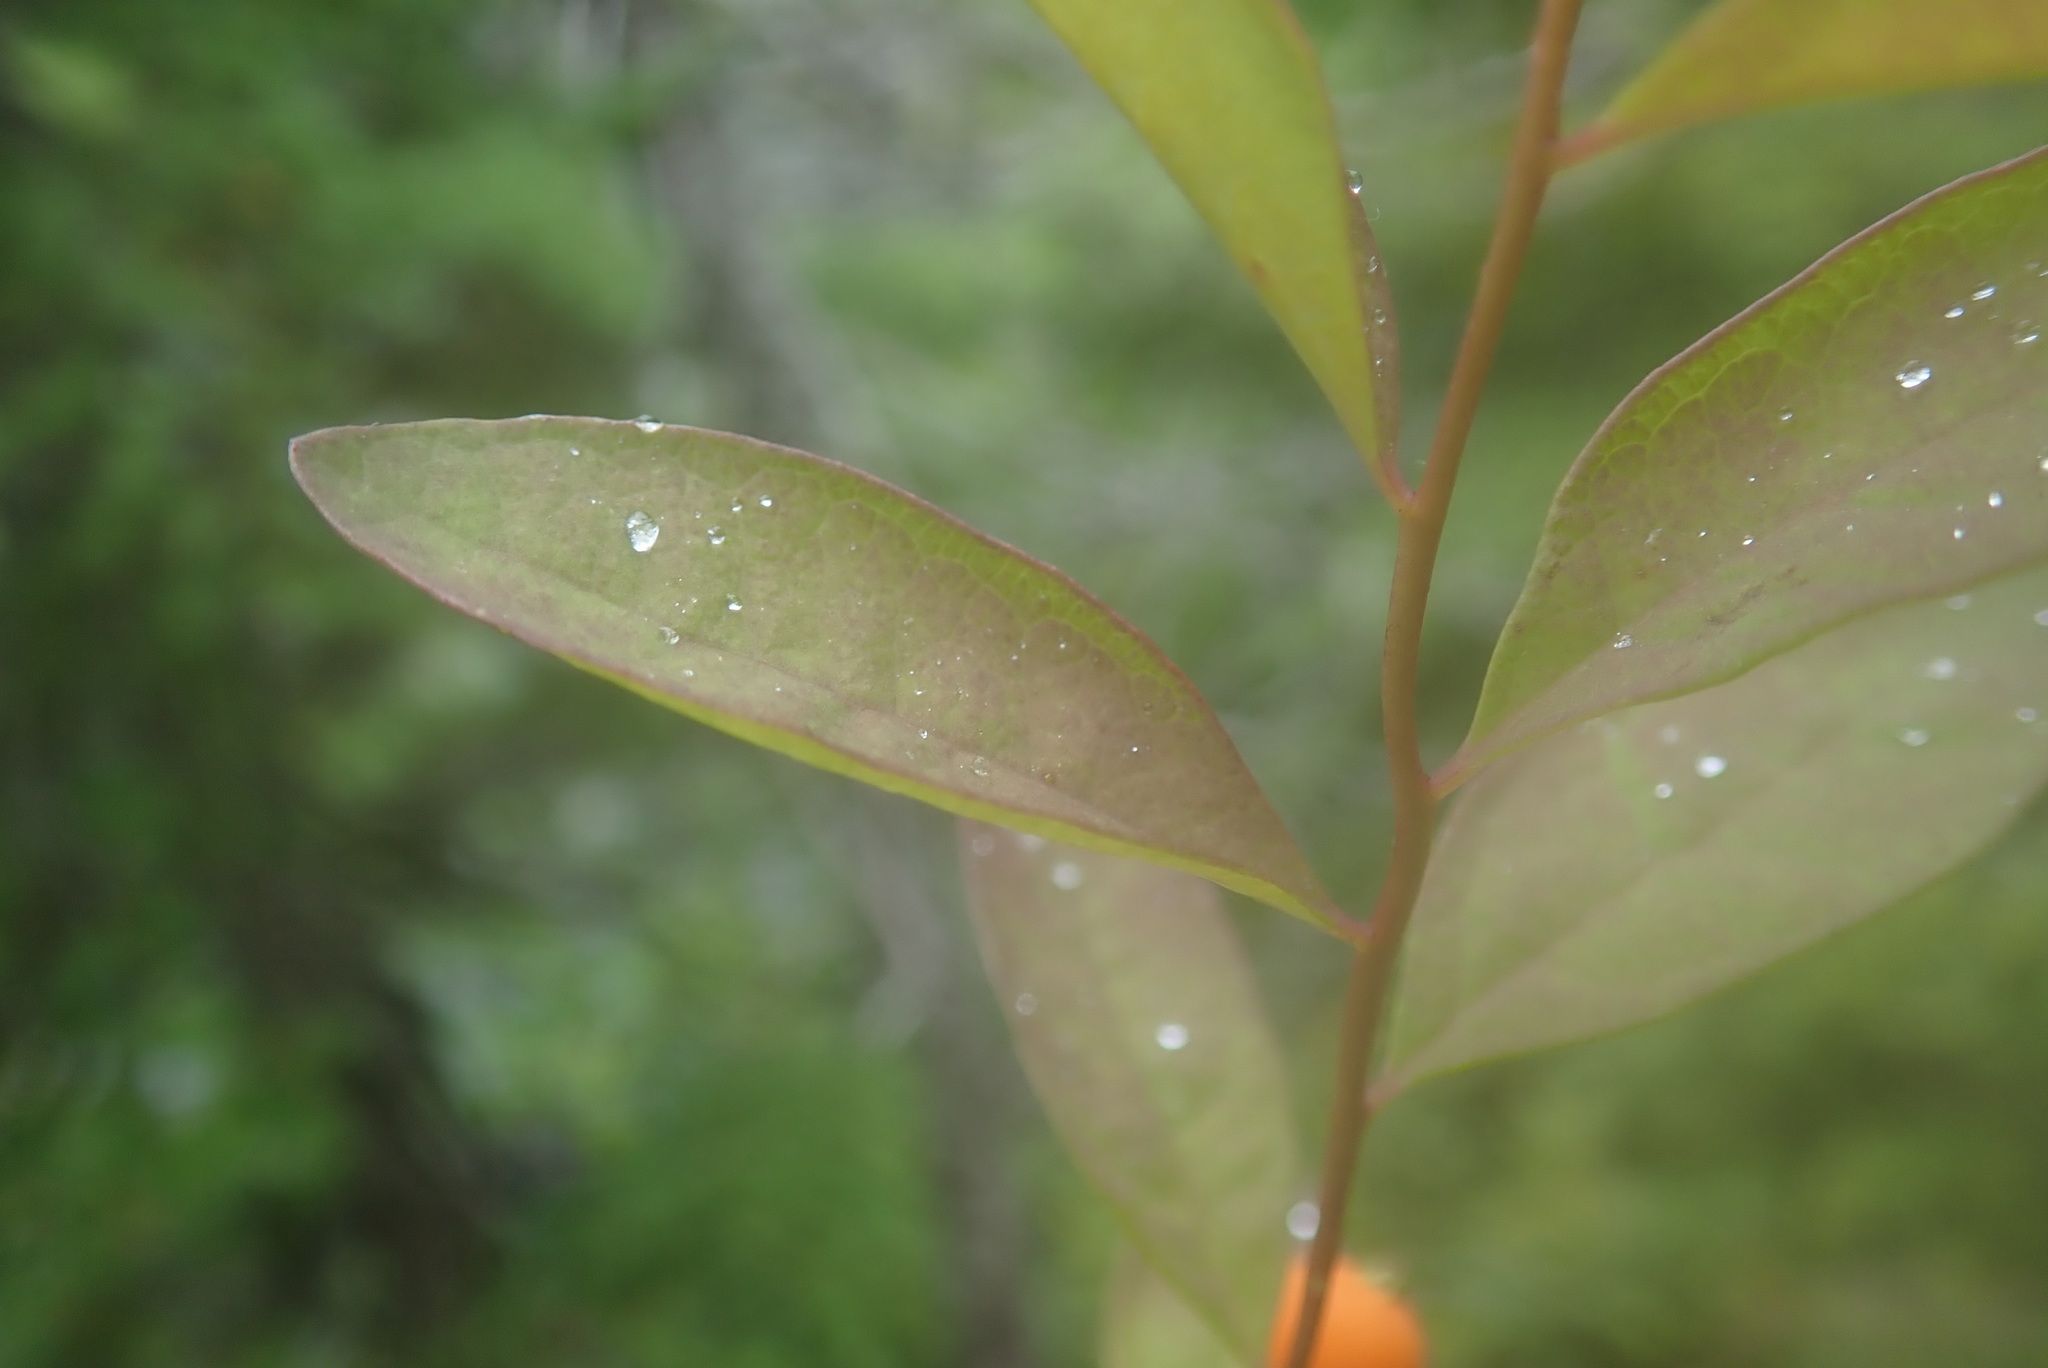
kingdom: Plantae
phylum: Tracheophyta
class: Magnoliopsida
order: Santalales
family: Comandraceae
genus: Geocaulon
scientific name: Geocaulon lividum
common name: Earthberry
